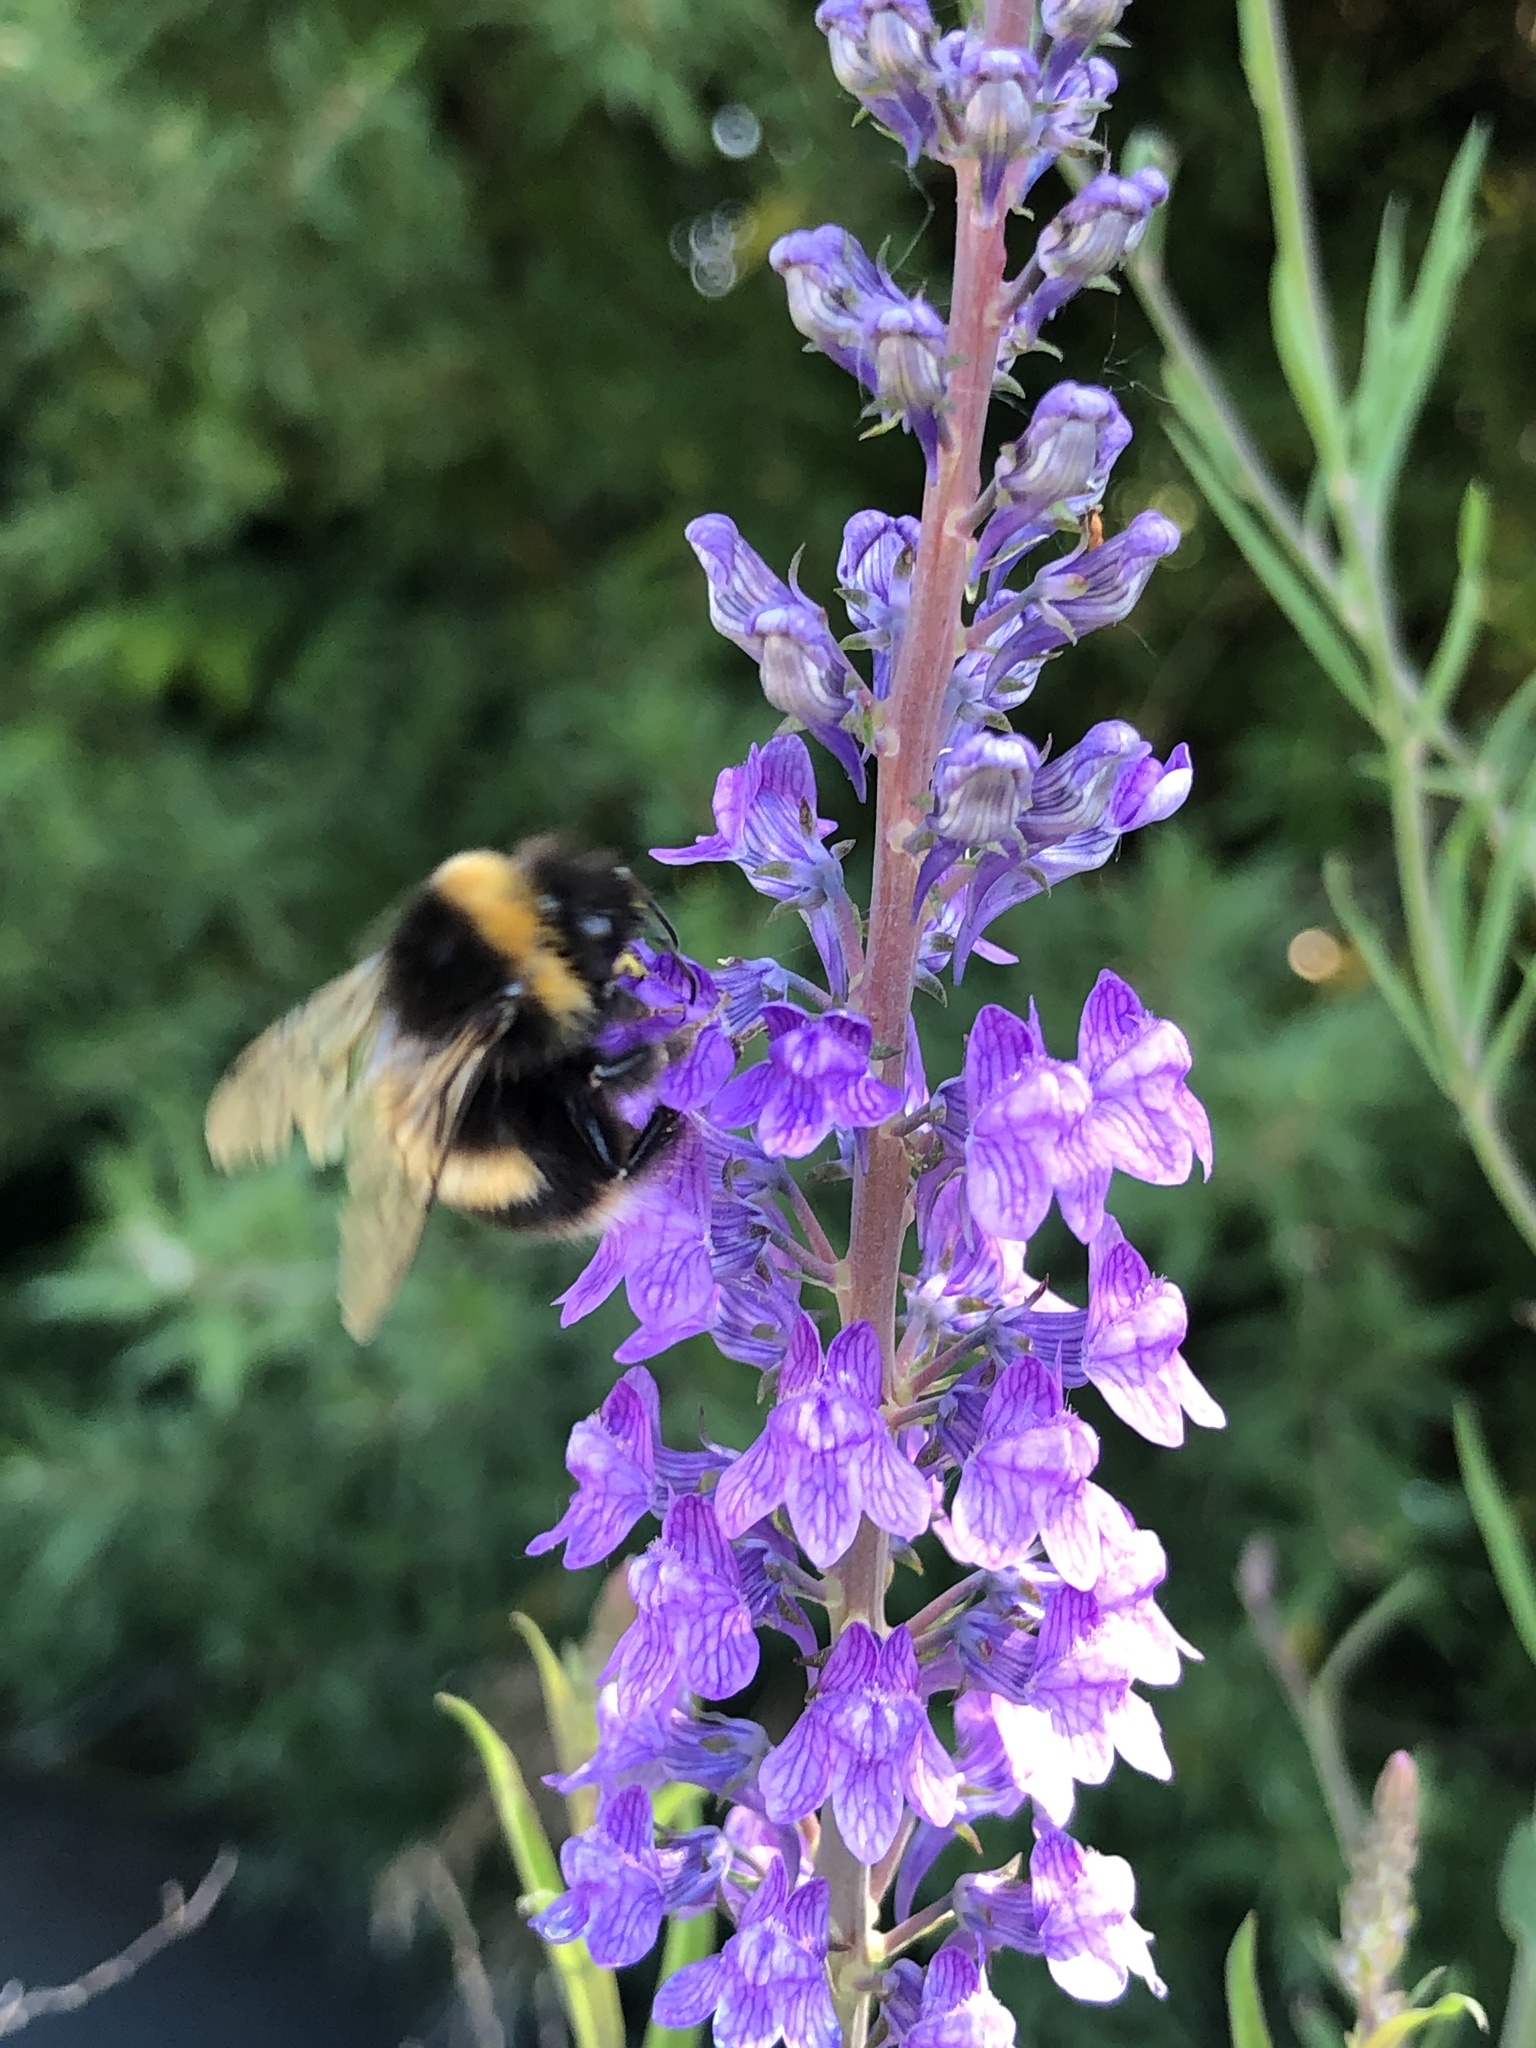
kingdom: Animalia
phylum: Arthropoda
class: Insecta
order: Hymenoptera
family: Apidae
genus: Bombus
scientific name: Bombus terrestris
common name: Buff-tailed bumblebee
